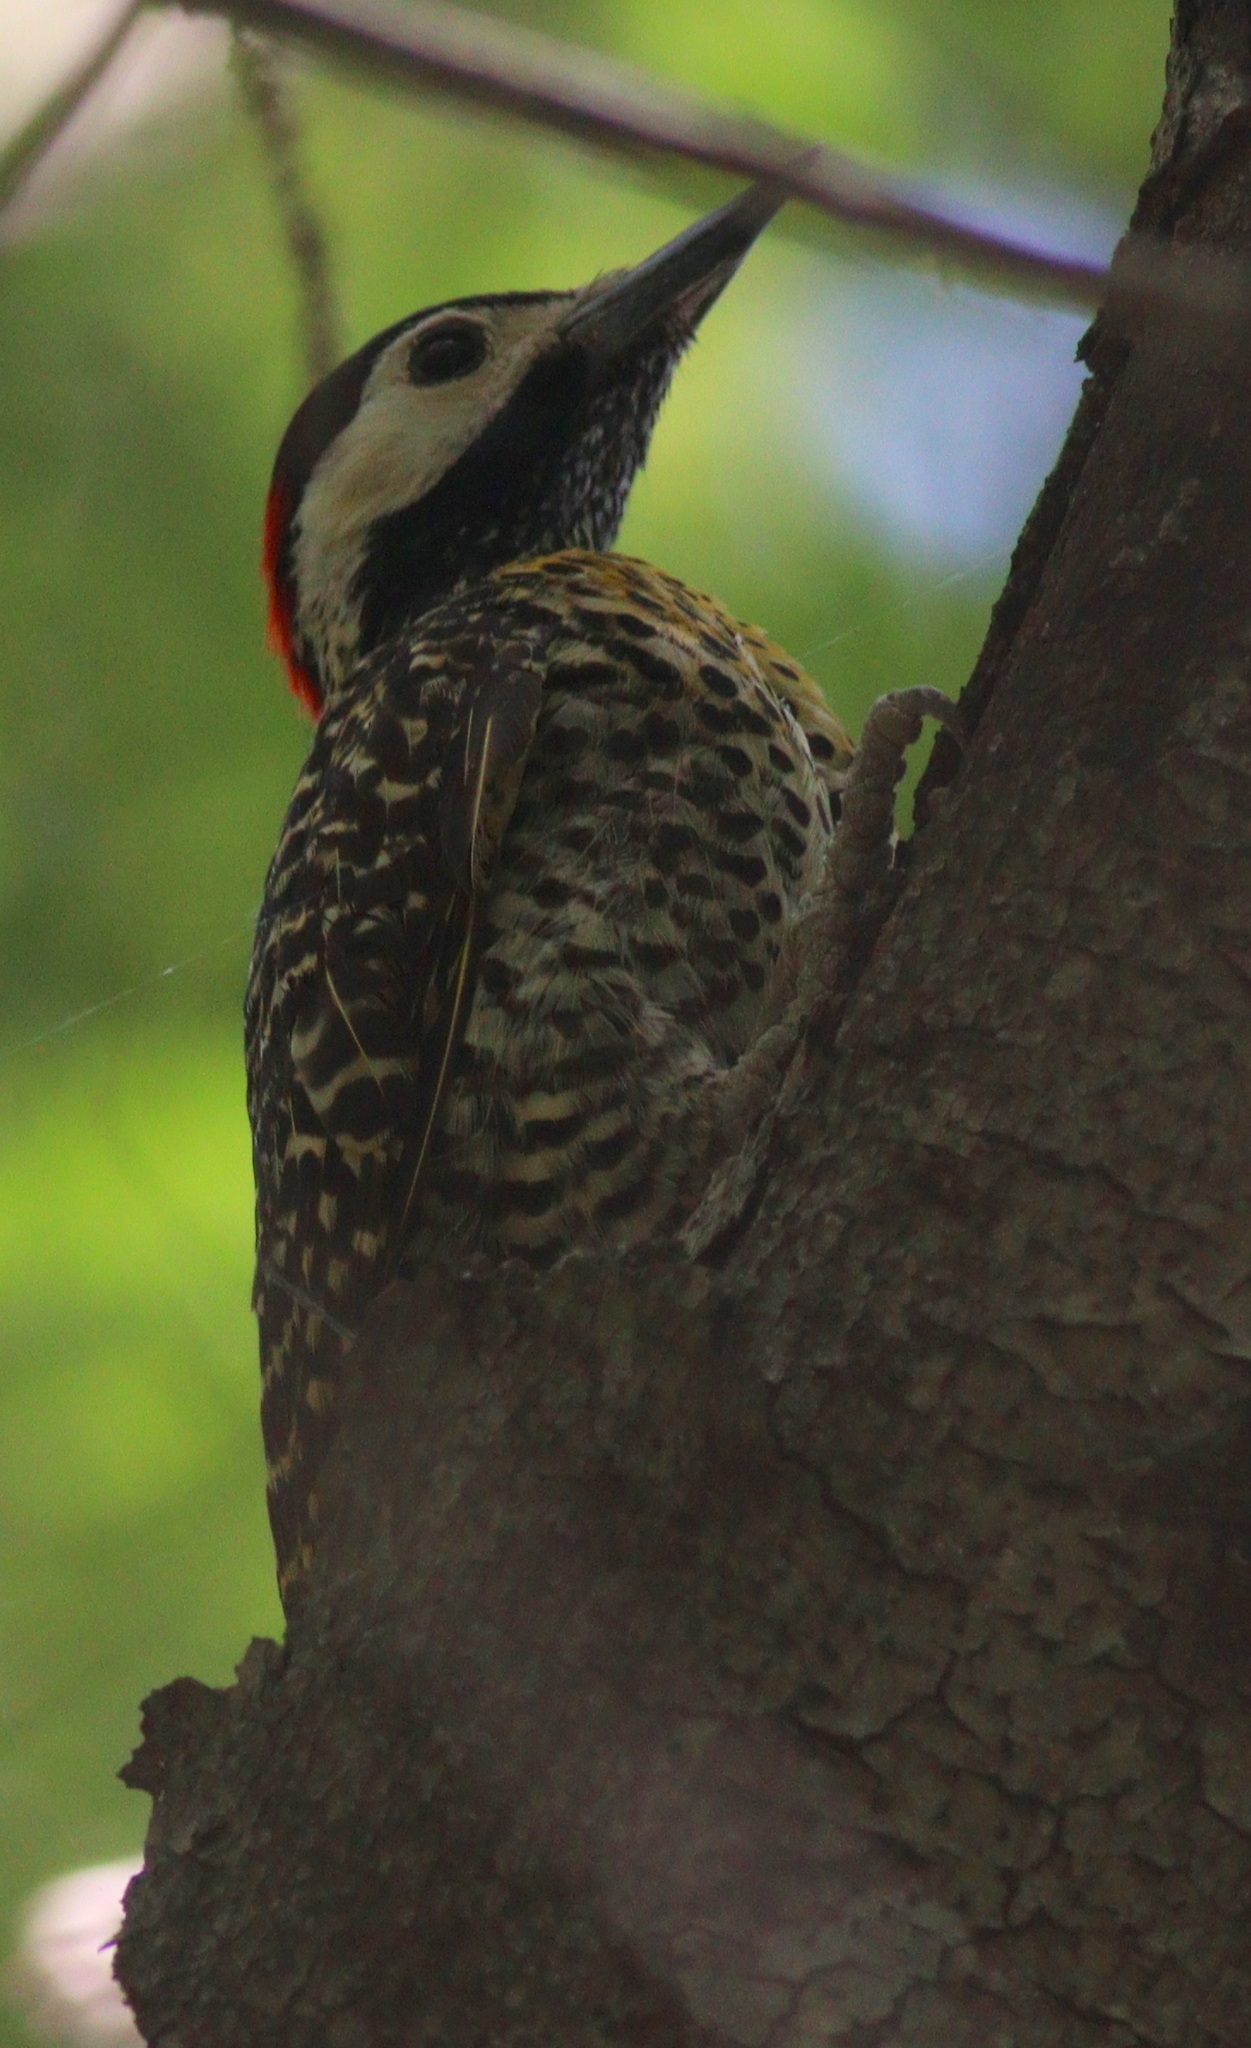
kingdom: Animalia
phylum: Chordata
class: Aves
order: Piciformes
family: Picidae
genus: Colaptes
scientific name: Colaptes melanochloros
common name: Green-barred woodpecker
